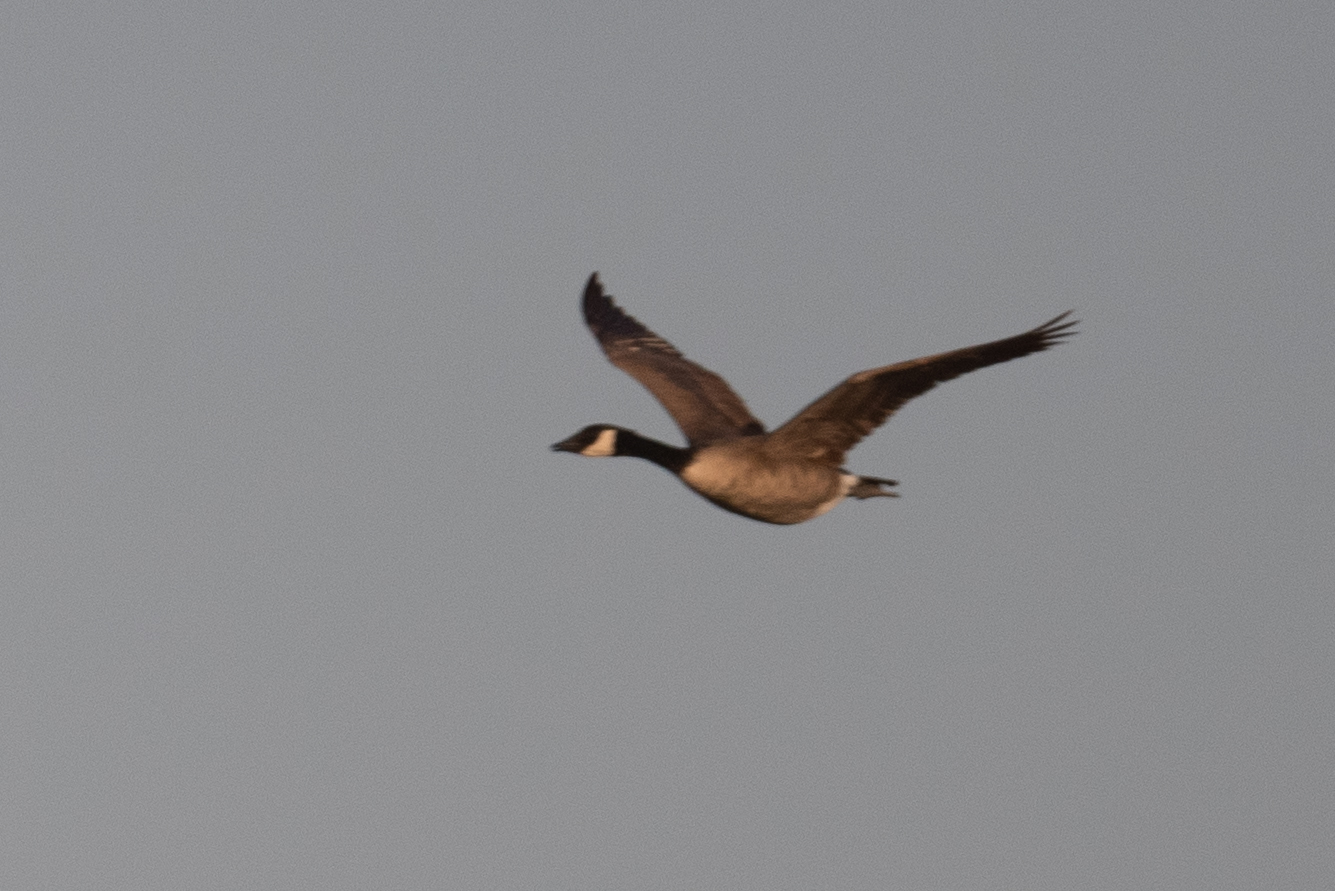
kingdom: Animalia
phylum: Chordata
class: Aves
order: Anseriformes
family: Anatidae
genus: Branta
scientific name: Branta canadensis
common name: Canada goose
